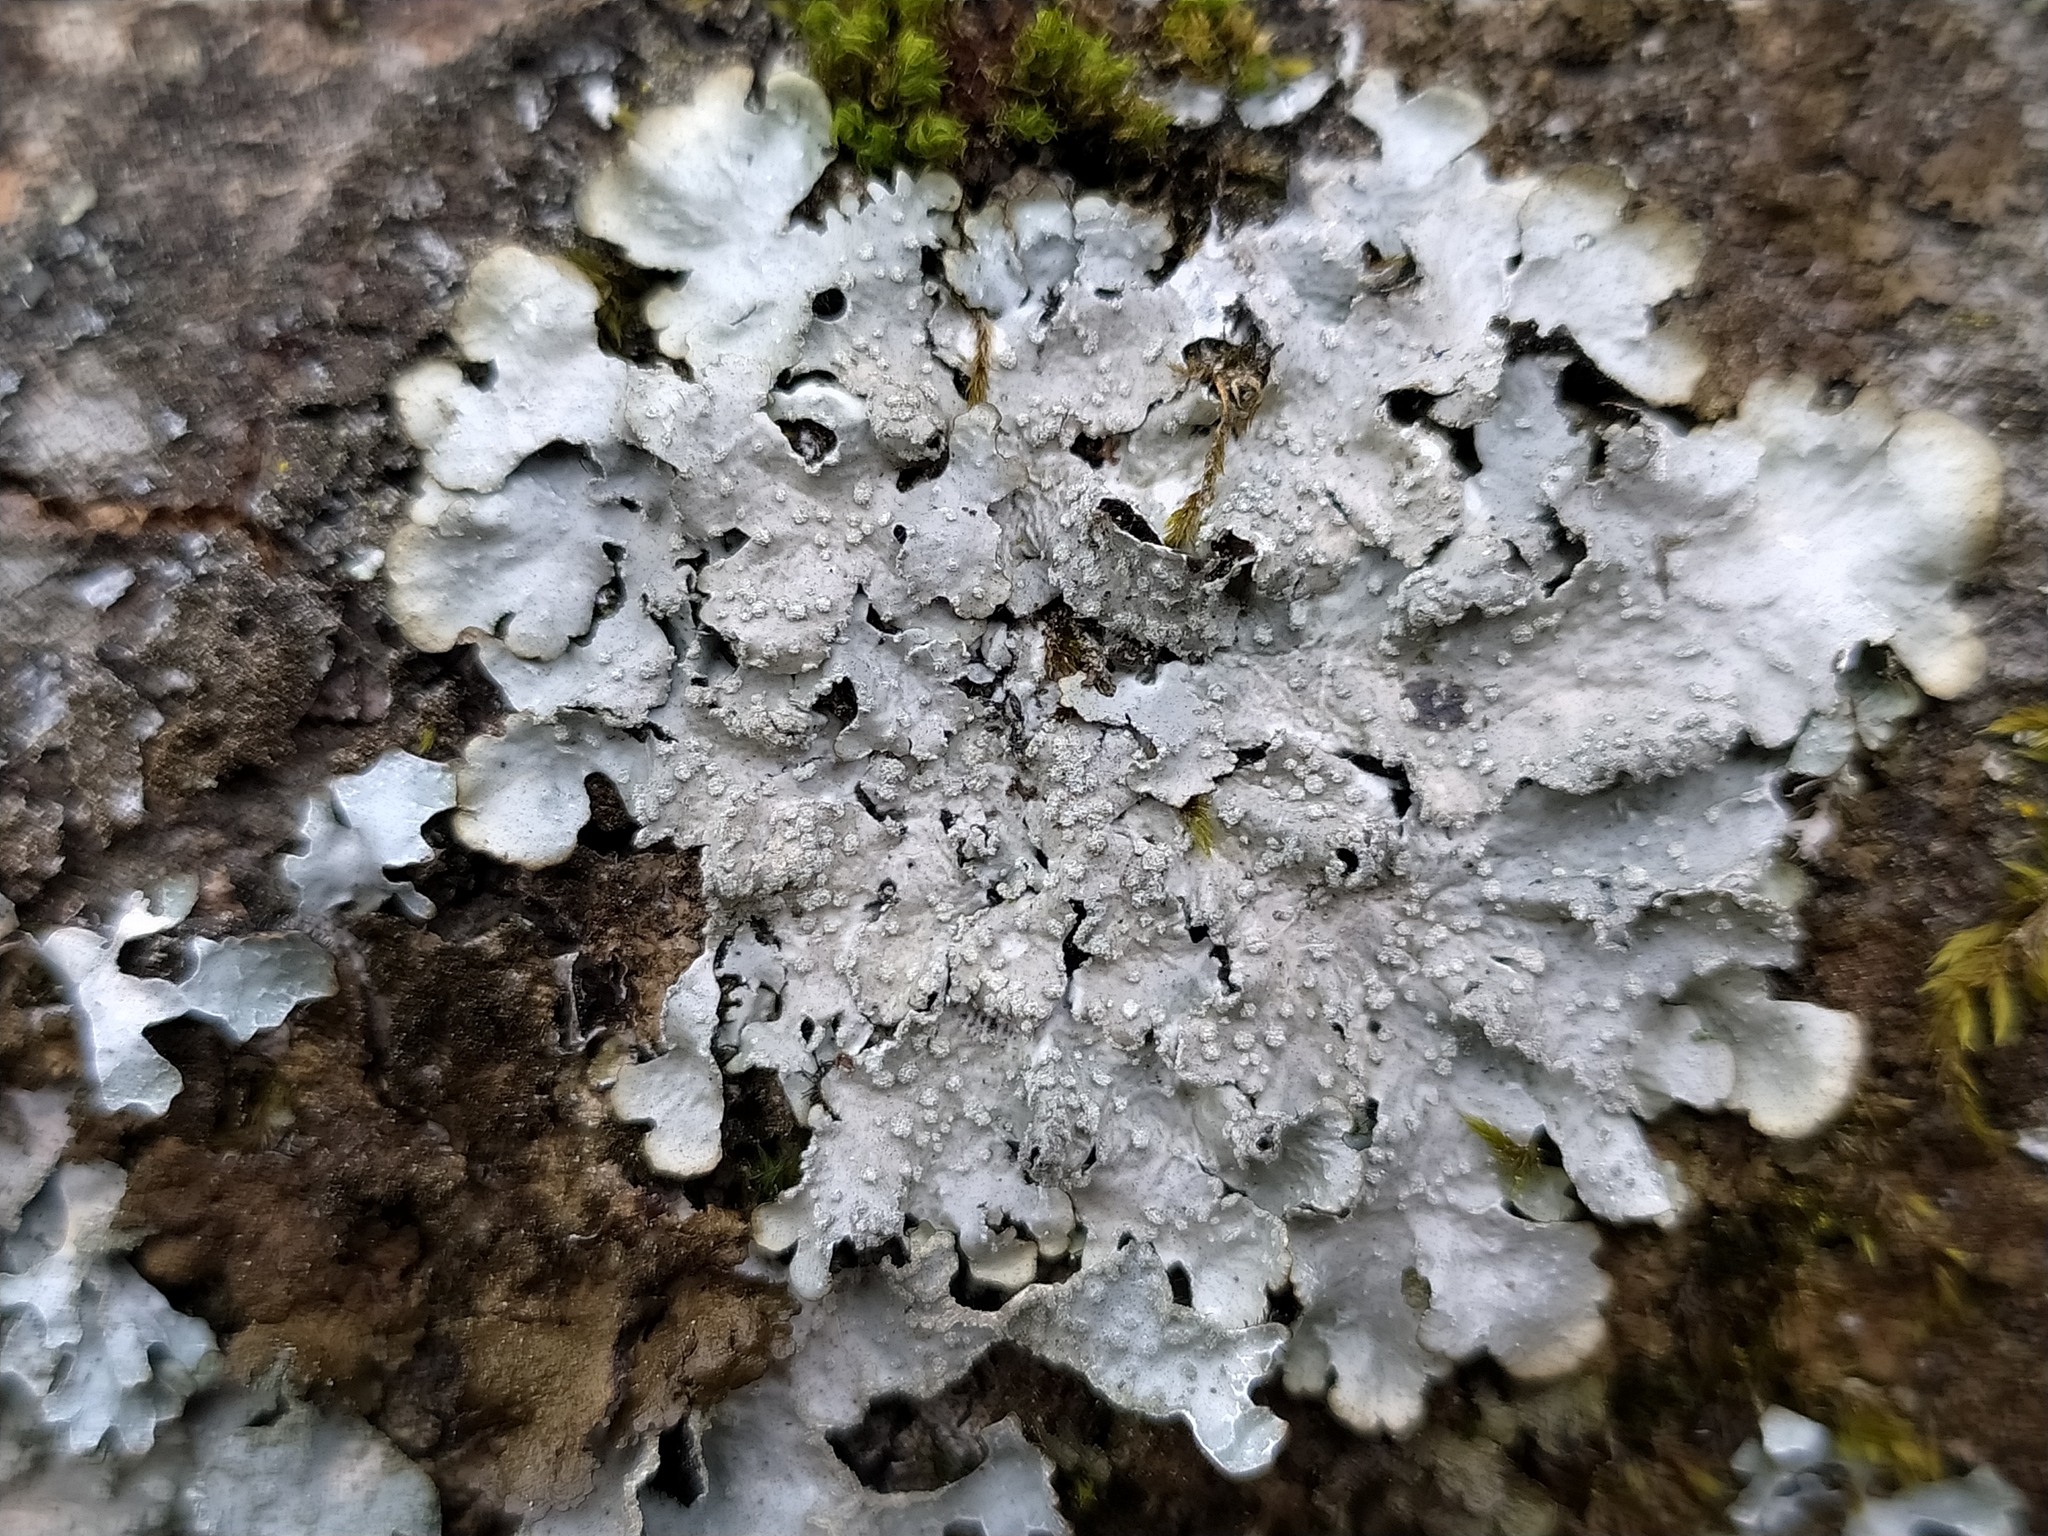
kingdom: Fungi
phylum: Ascomycota
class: Lecanoromycetes
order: Lecanorales
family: Parmeliaceae
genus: Punctelia
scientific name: Punctelia subrudecta
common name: Powdered speckled shield lichen
